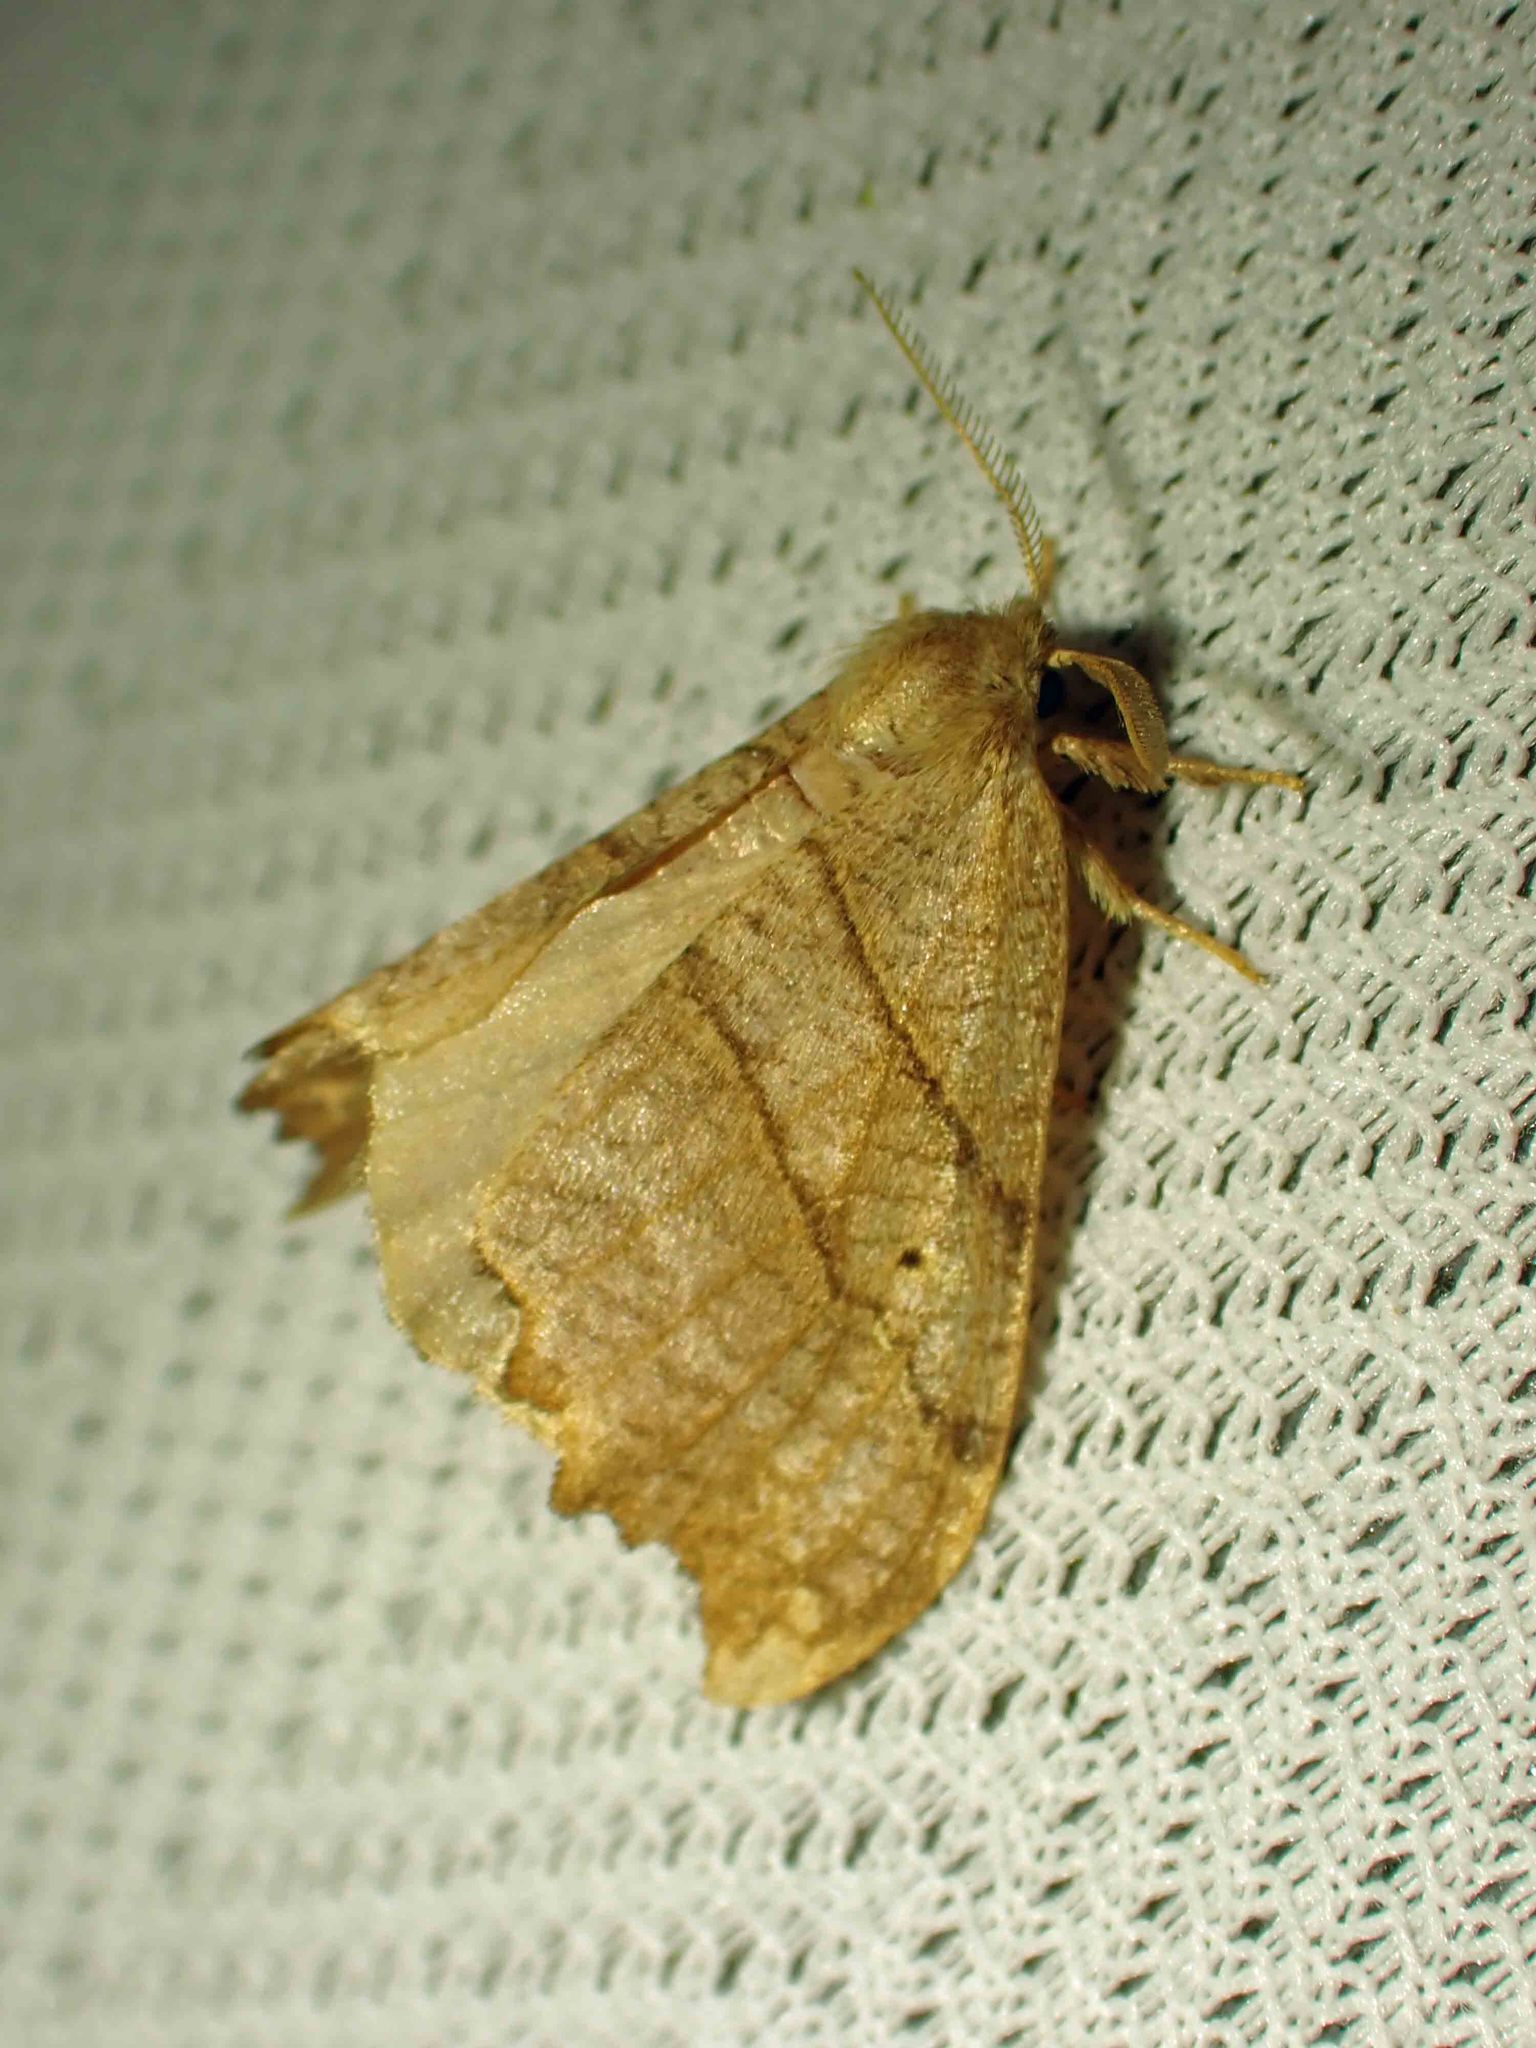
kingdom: Animalia
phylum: Arthropoda
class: Insecta
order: Lepidoptera
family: Drepanidae
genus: Falcaria
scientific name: Falcaria bilineata
